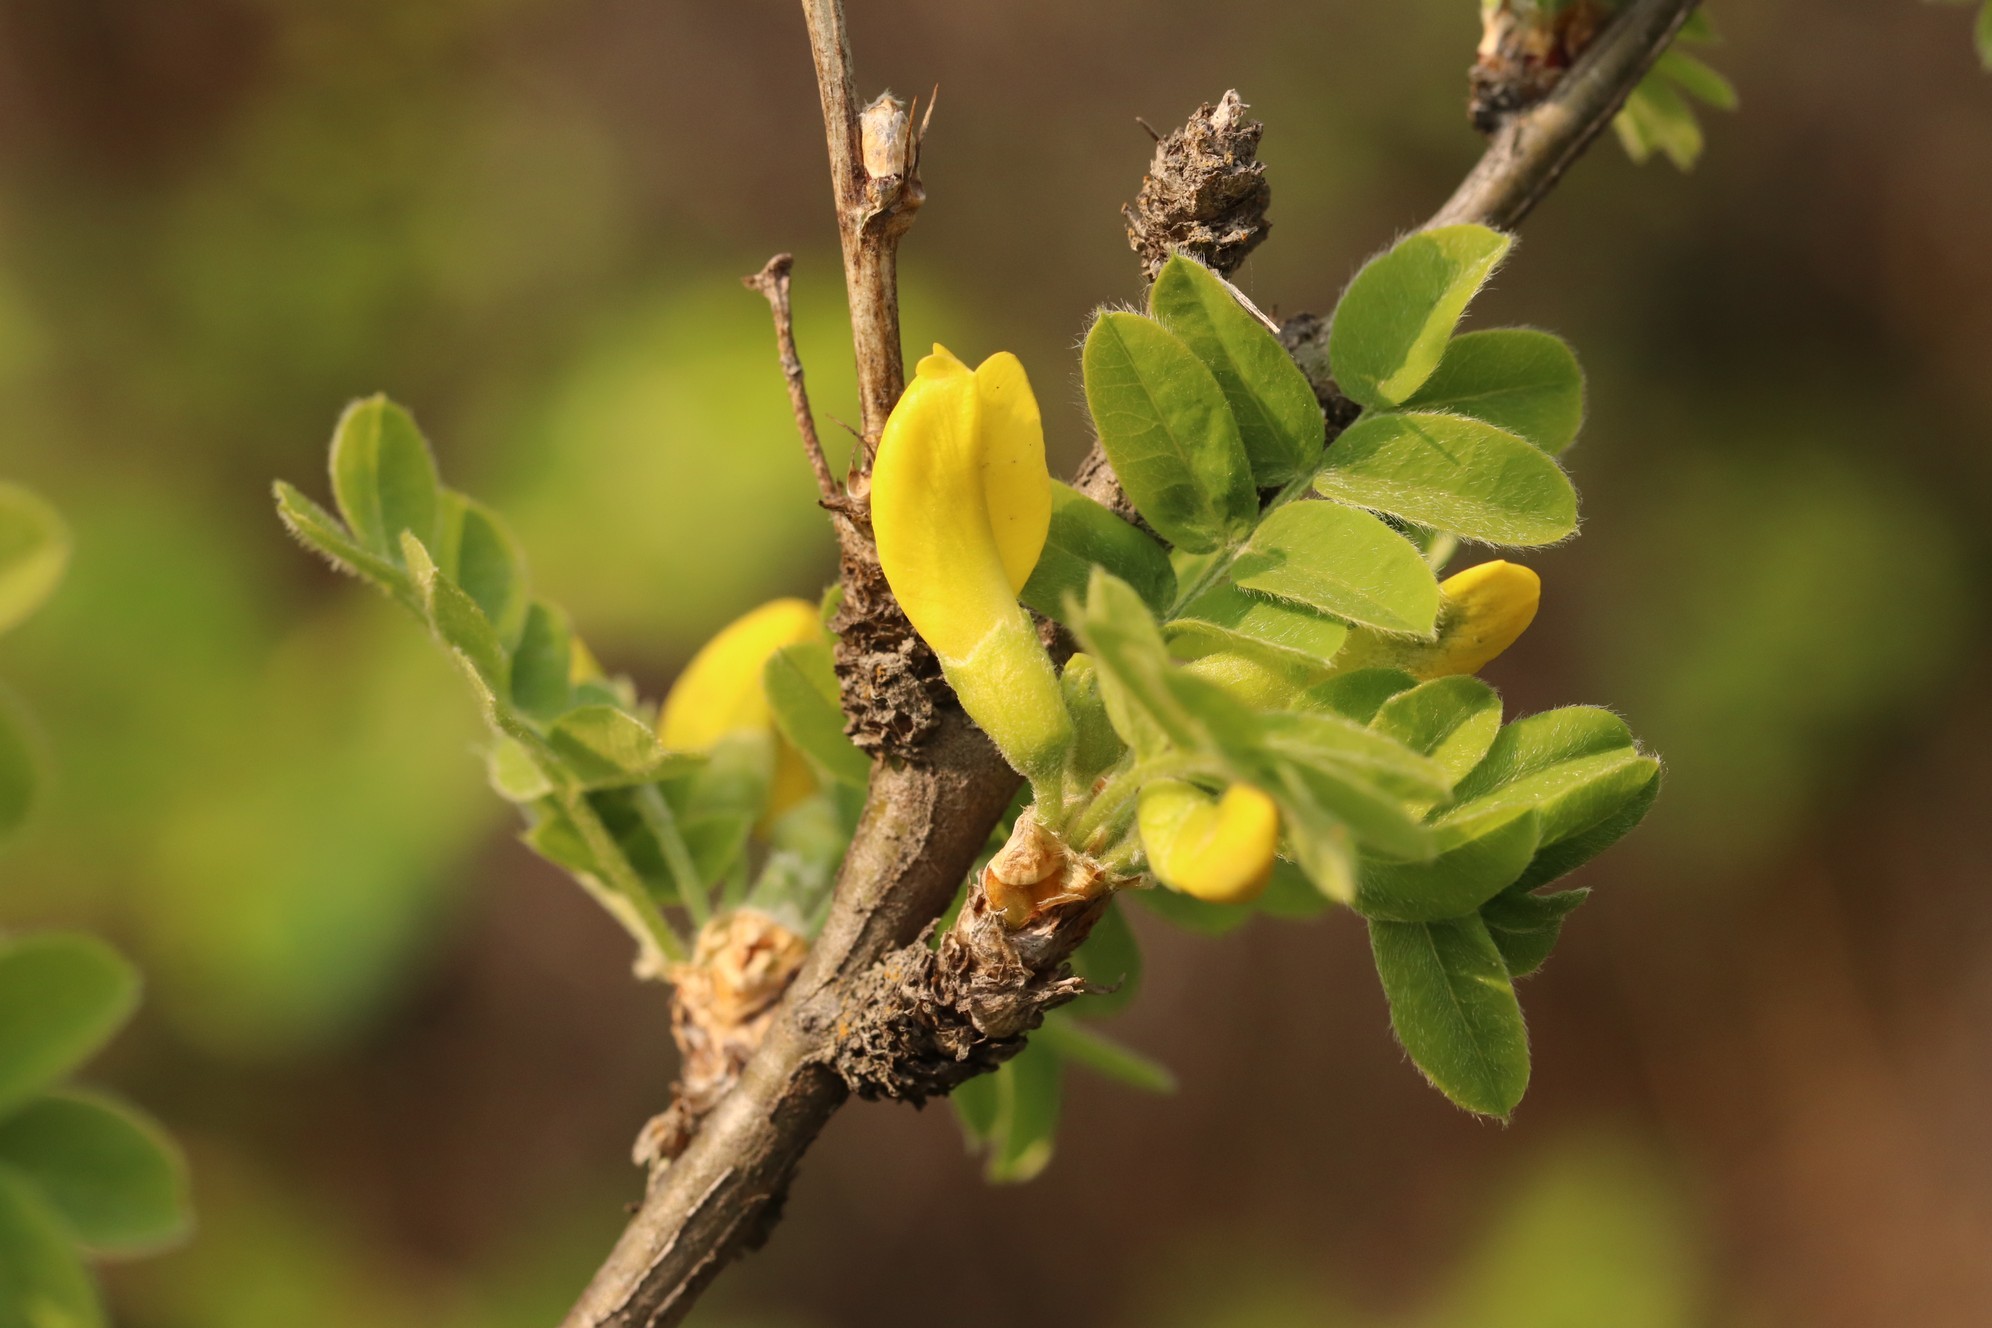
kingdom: Plantae
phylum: Tracheophyta
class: Magnoliopsida
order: Fabales
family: Fabaceae
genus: Caragana
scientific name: Caragana arborescens
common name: Siberian peashrub
